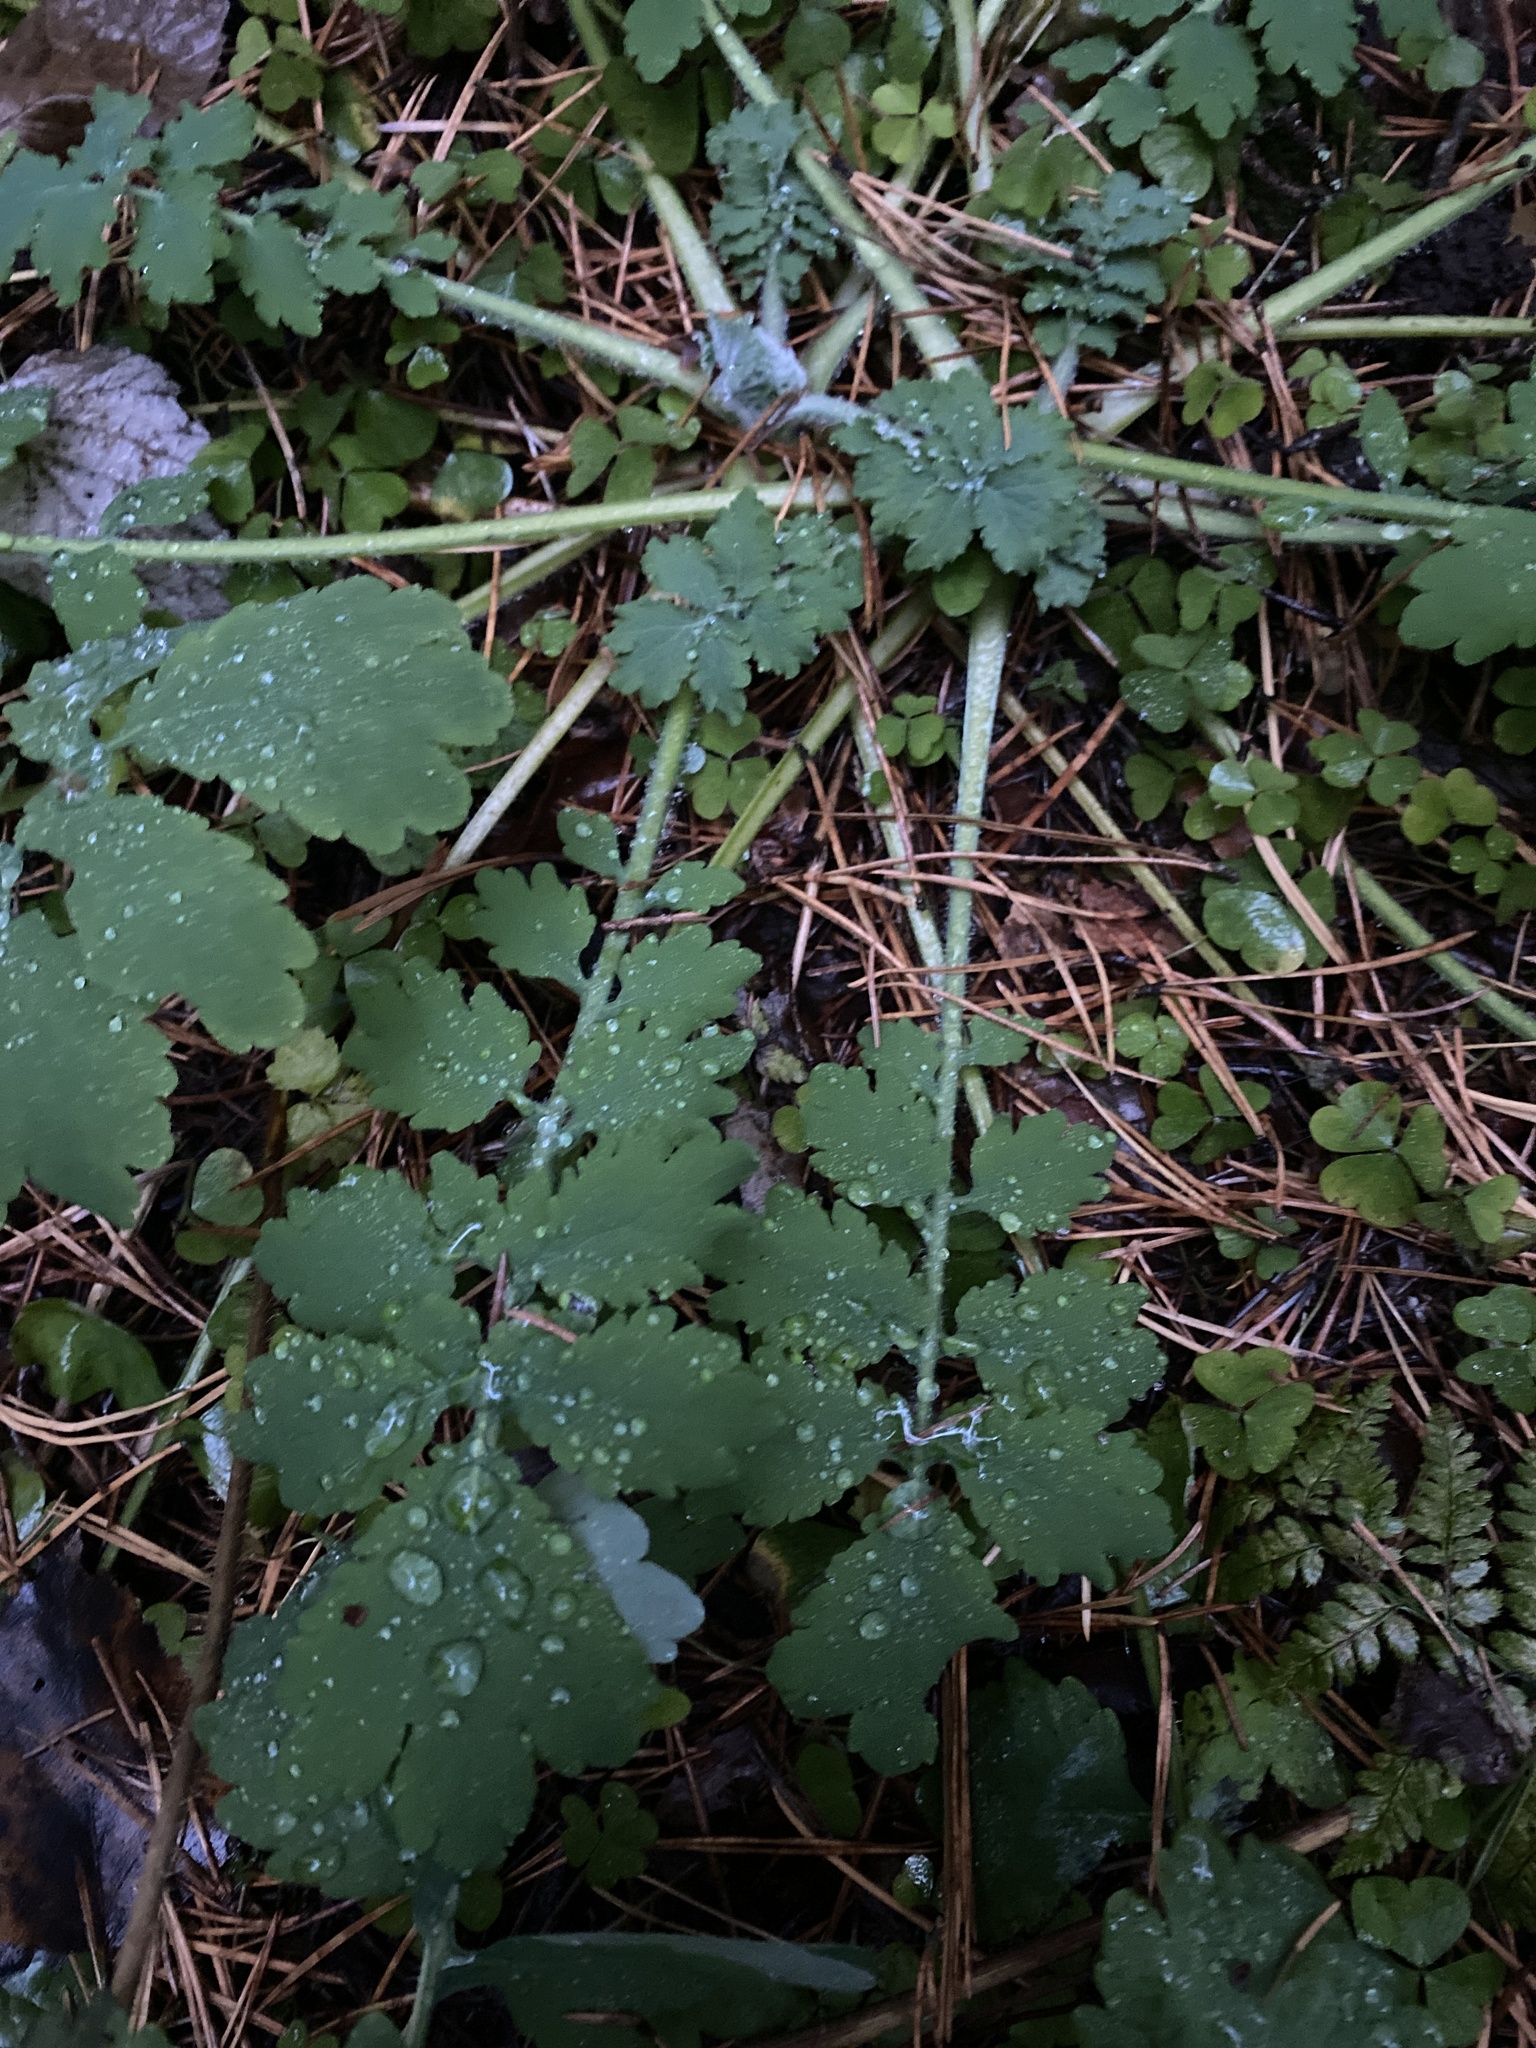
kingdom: Plantae
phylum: Tracheophyta
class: Magnoliopsida
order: Ranunculales
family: Papaveraceae
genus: Chelidonium
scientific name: Chelidonium majus
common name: Greater celandine
